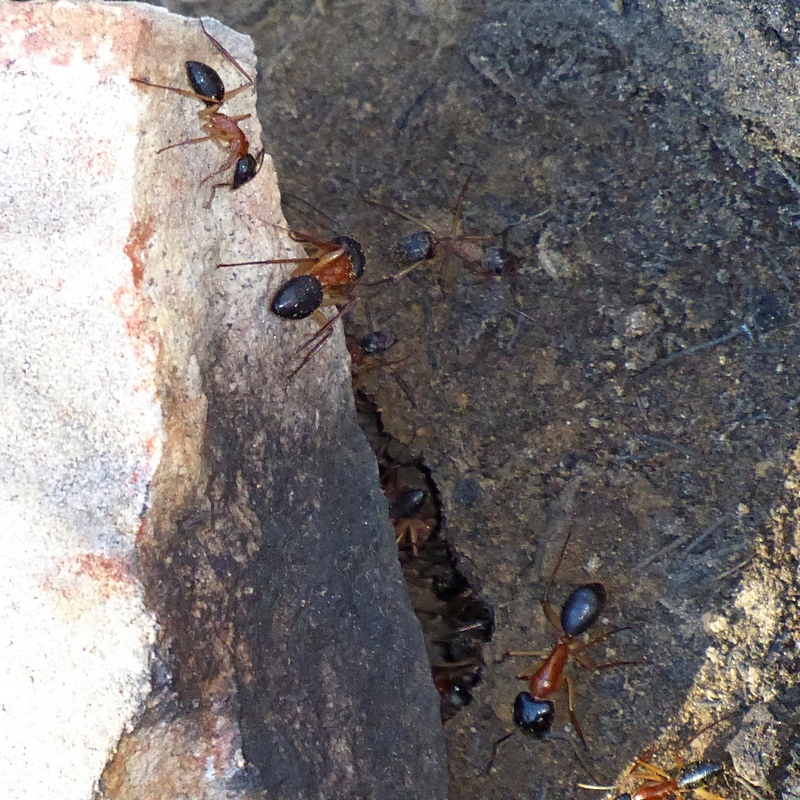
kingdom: Animalia
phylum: Arthropoda
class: Insecta
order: Hymenoptera
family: Formicidae
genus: Camponotus
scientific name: Camponotus nigriceps
